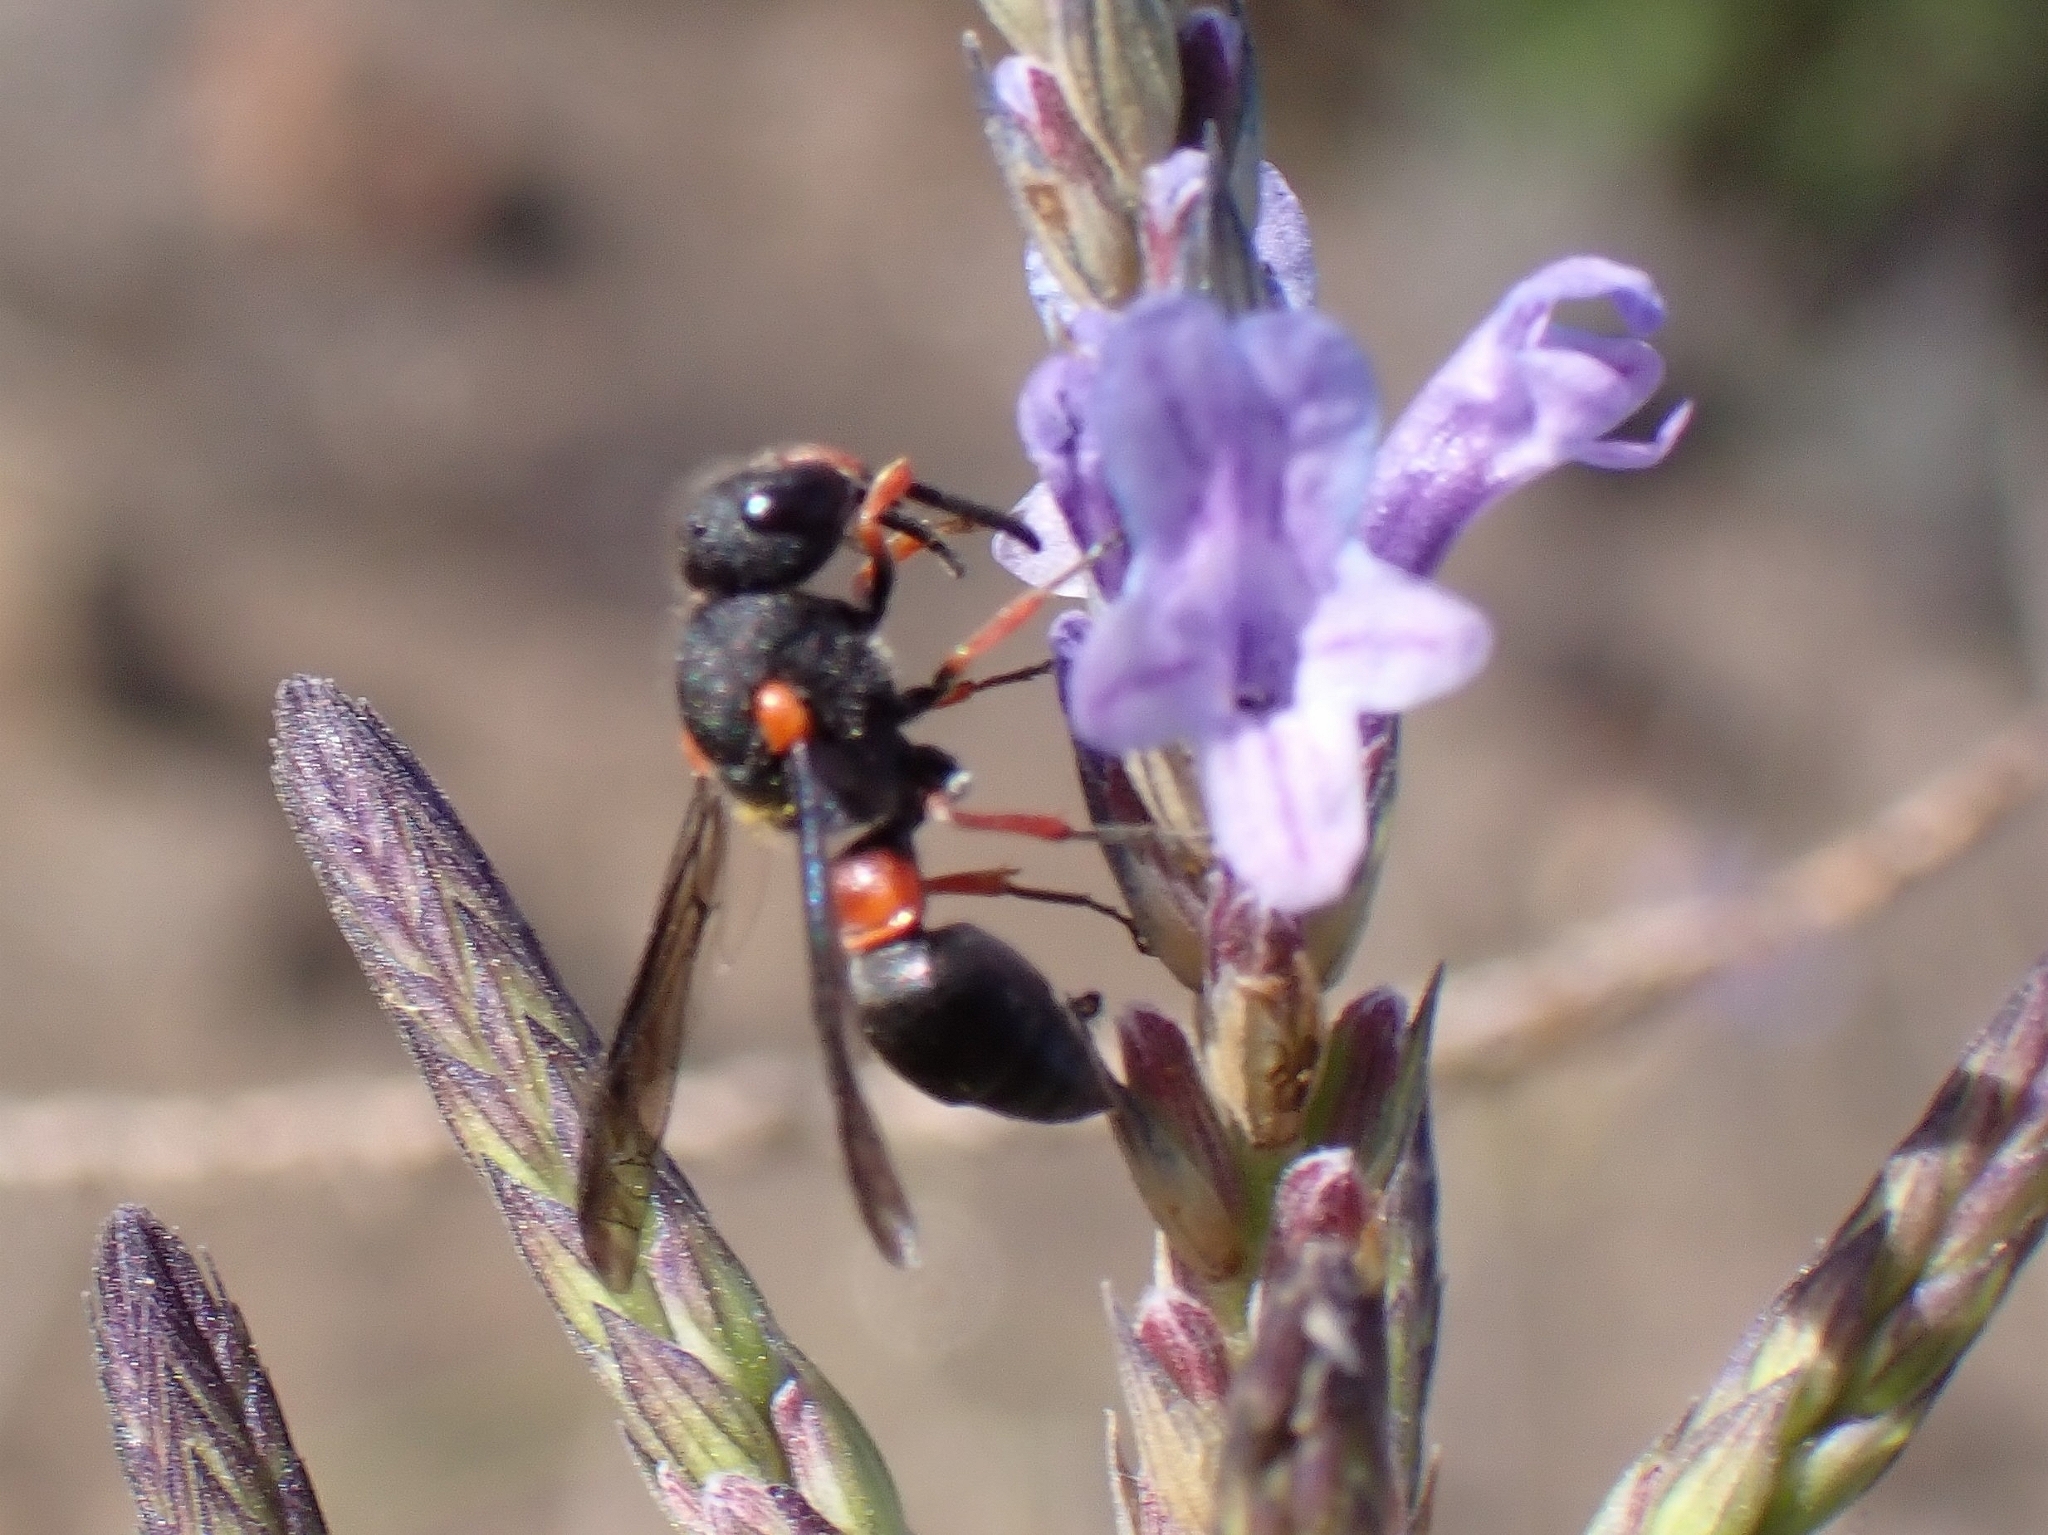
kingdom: Animalia
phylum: Arthropoda
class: Insecta
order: Hymenoptera
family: Eumenidae
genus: Leptochilus
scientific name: Leptochilus cruentatus
